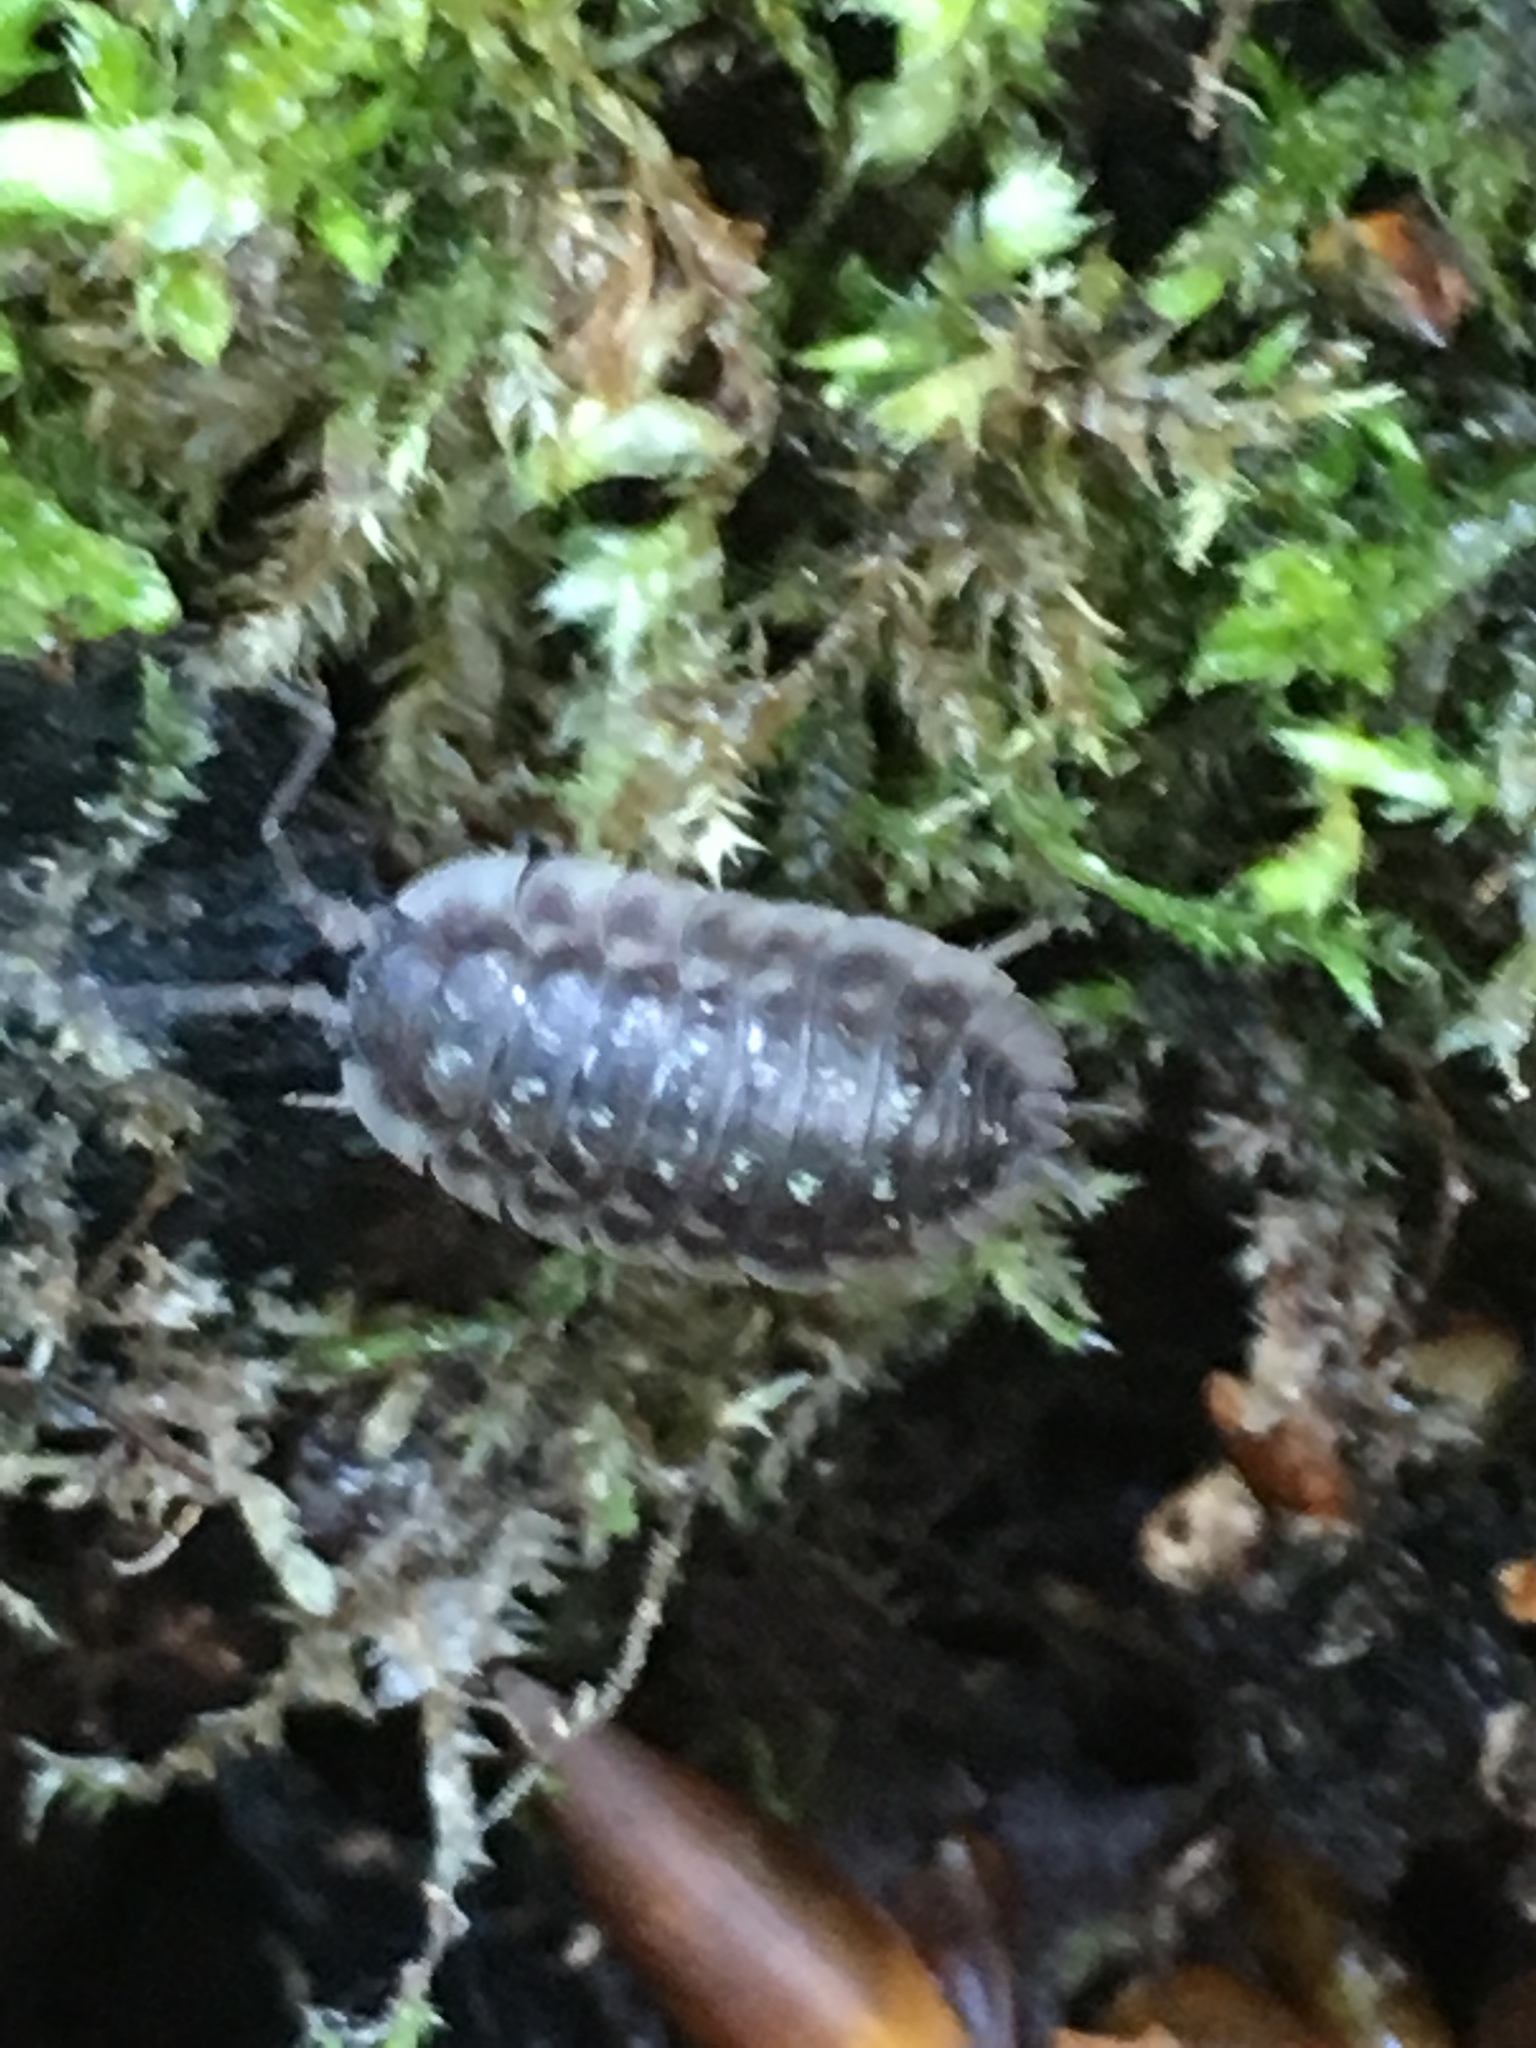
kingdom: Animalia
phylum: Arthropoda
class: Malacostraca
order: Isopoda
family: Oniscidae
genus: Oniscus
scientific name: Oniscus asellus
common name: Common shiny woodlouse
